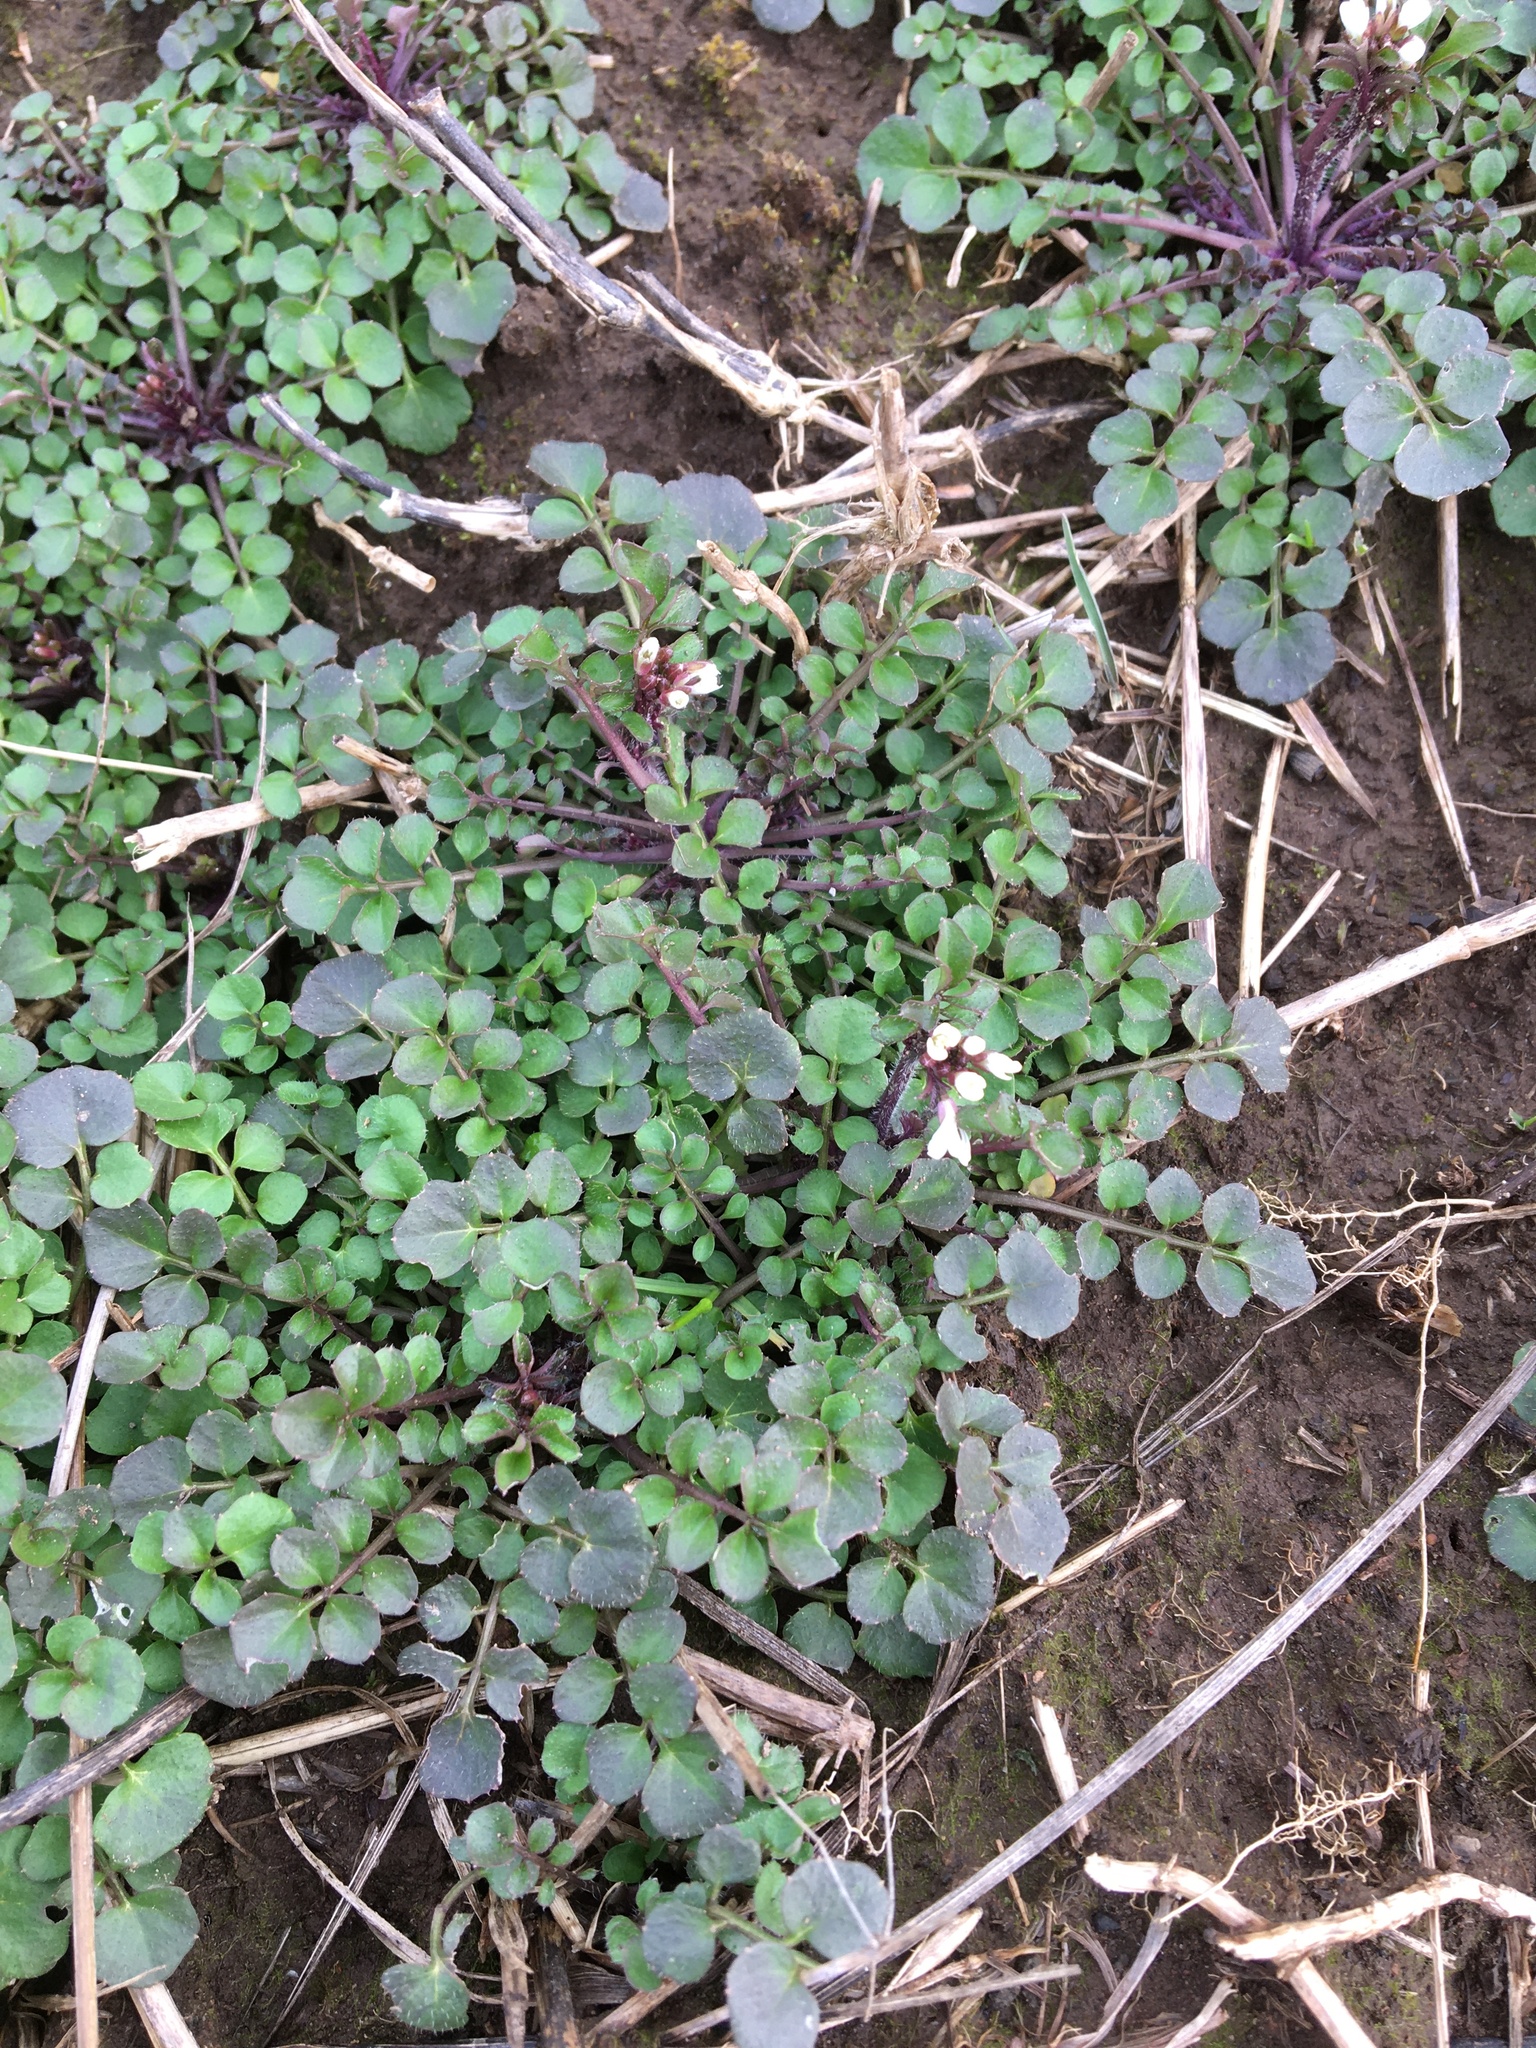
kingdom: Plantae
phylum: Tracheophyta
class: Magnoliopsida
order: Brassicales
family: Brassicaceae
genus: Cardamine
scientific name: Cardamine hirsuta
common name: Hairy bittercress
